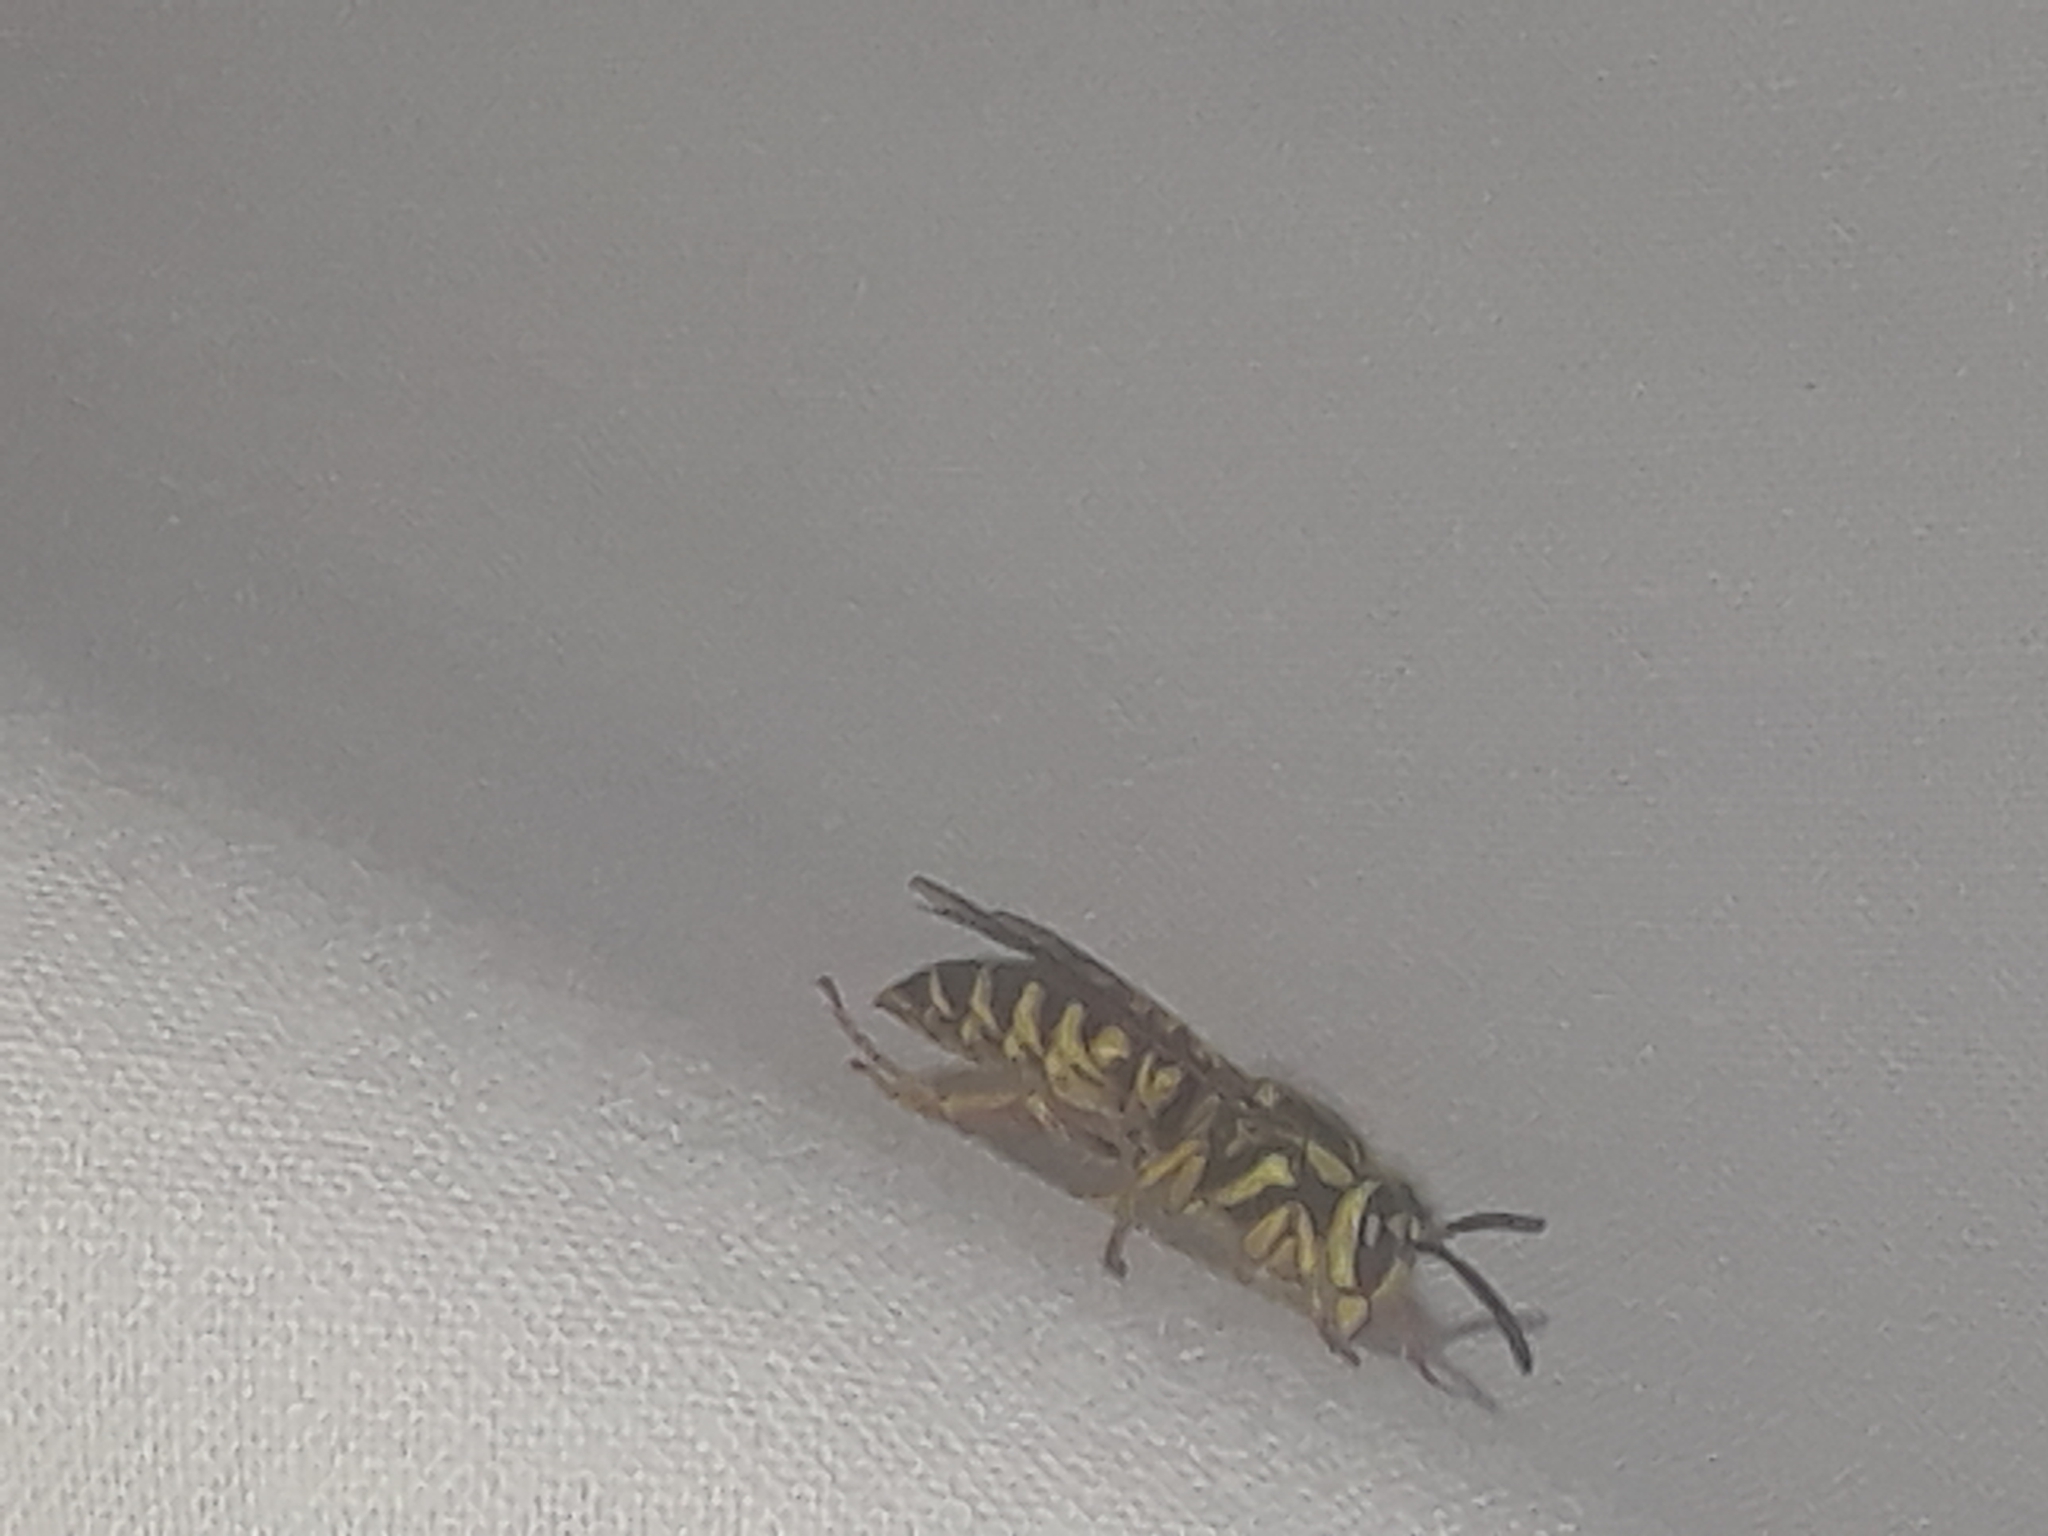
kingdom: Animalia
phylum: Arthropoda
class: Insecta
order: Hymenoptera
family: Vespidae
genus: Vespula
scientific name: Vespula squamosa
